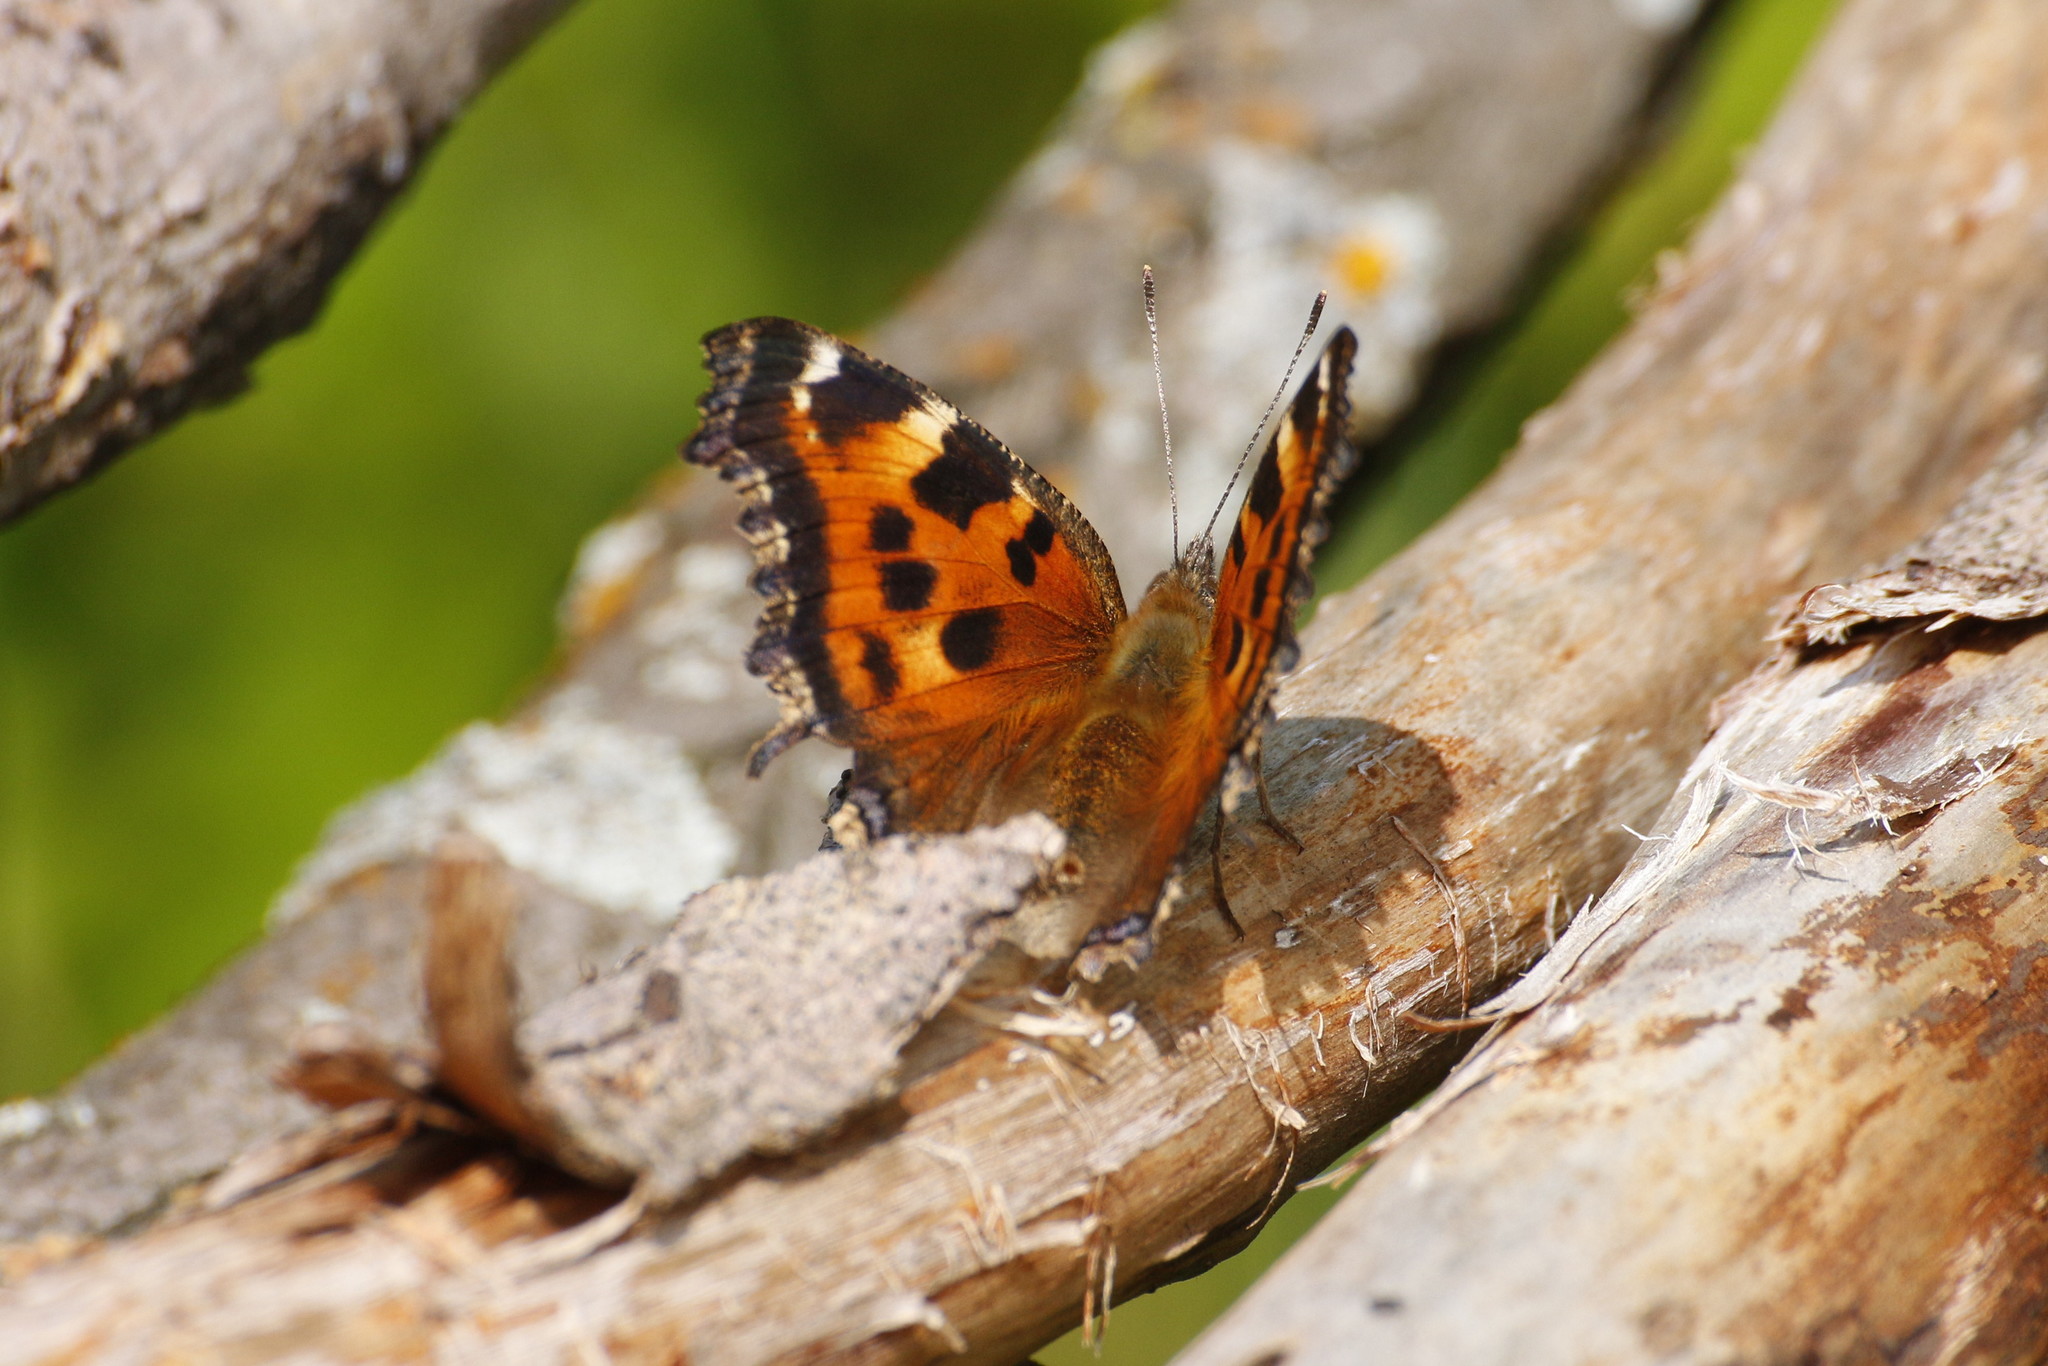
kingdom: Animalia
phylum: Arthropoda
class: Insecta
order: Lepidoptera
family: Nymphalidae
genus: Nymphalis
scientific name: Nymphalis xanthomelas
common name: Scarce tortoiseshell
